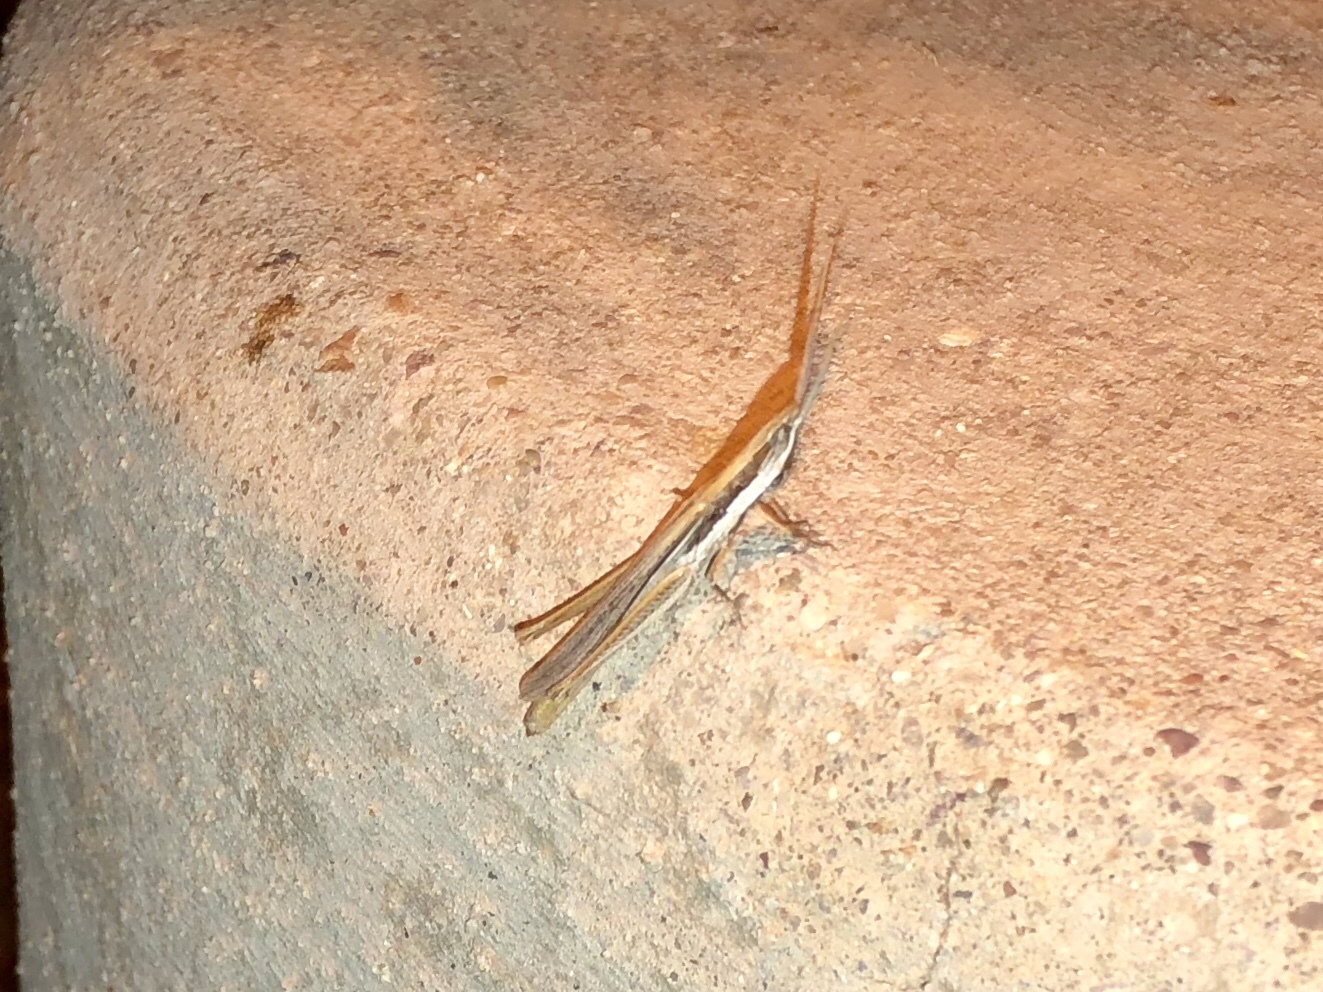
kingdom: Animalia
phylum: Arthropoda
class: Insecta
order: Orthoptera
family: Acrididae
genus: Paropomala
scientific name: Paropomala pallida
